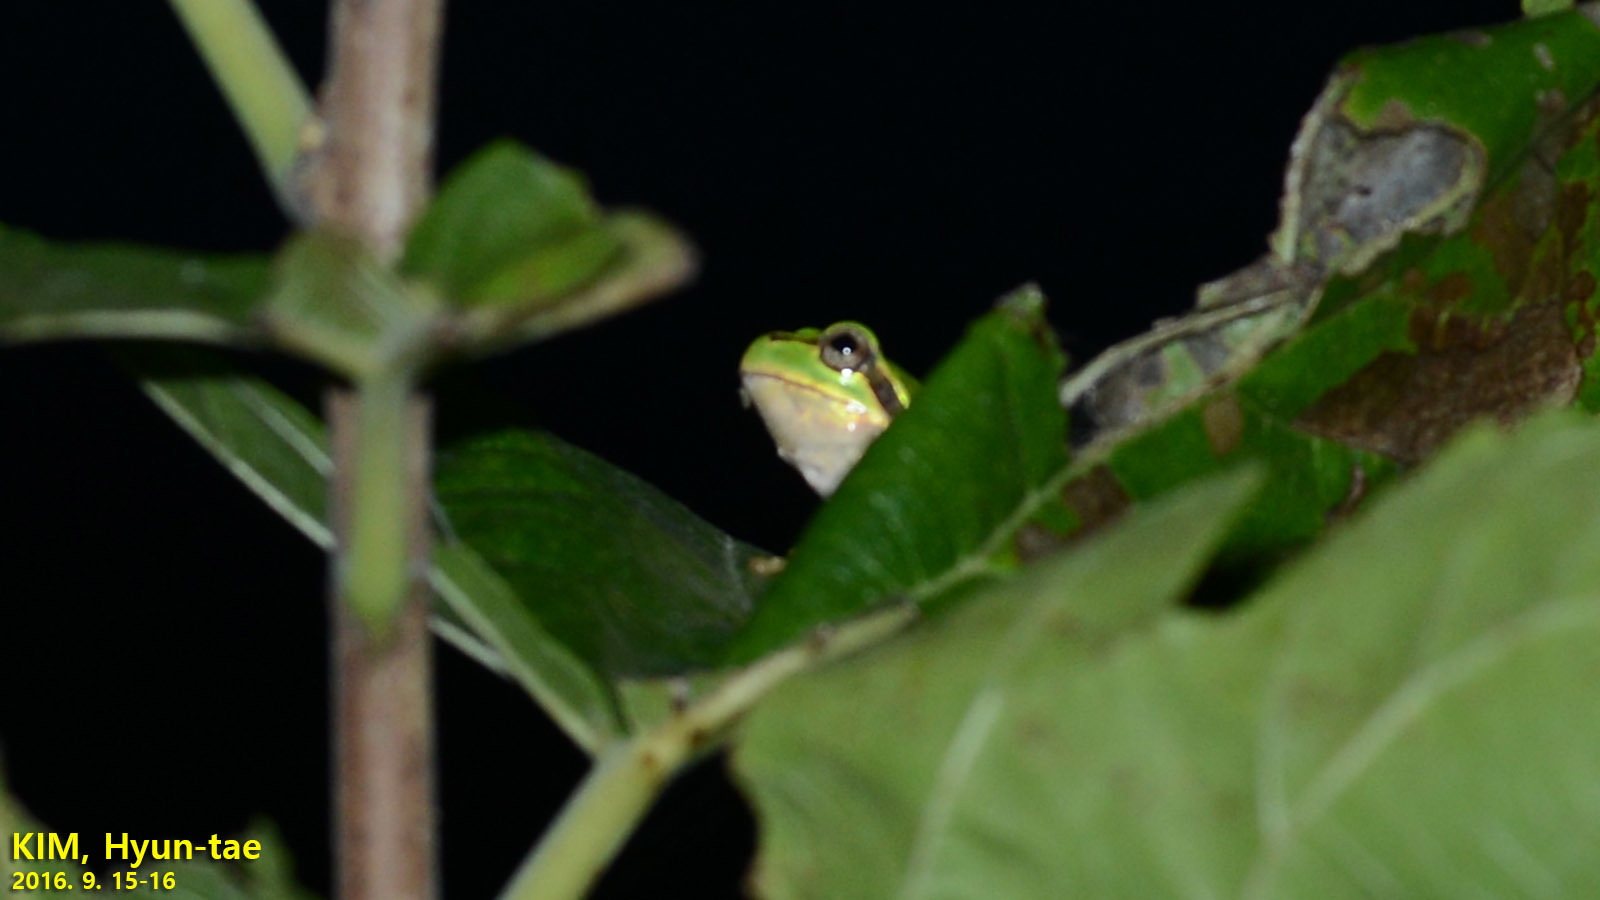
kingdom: Animalia
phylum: Chordata
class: Amphibia
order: Anura
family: Hylidae
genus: Dryophytes
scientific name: Dryophytes japonicus
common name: Japanese treefrog
